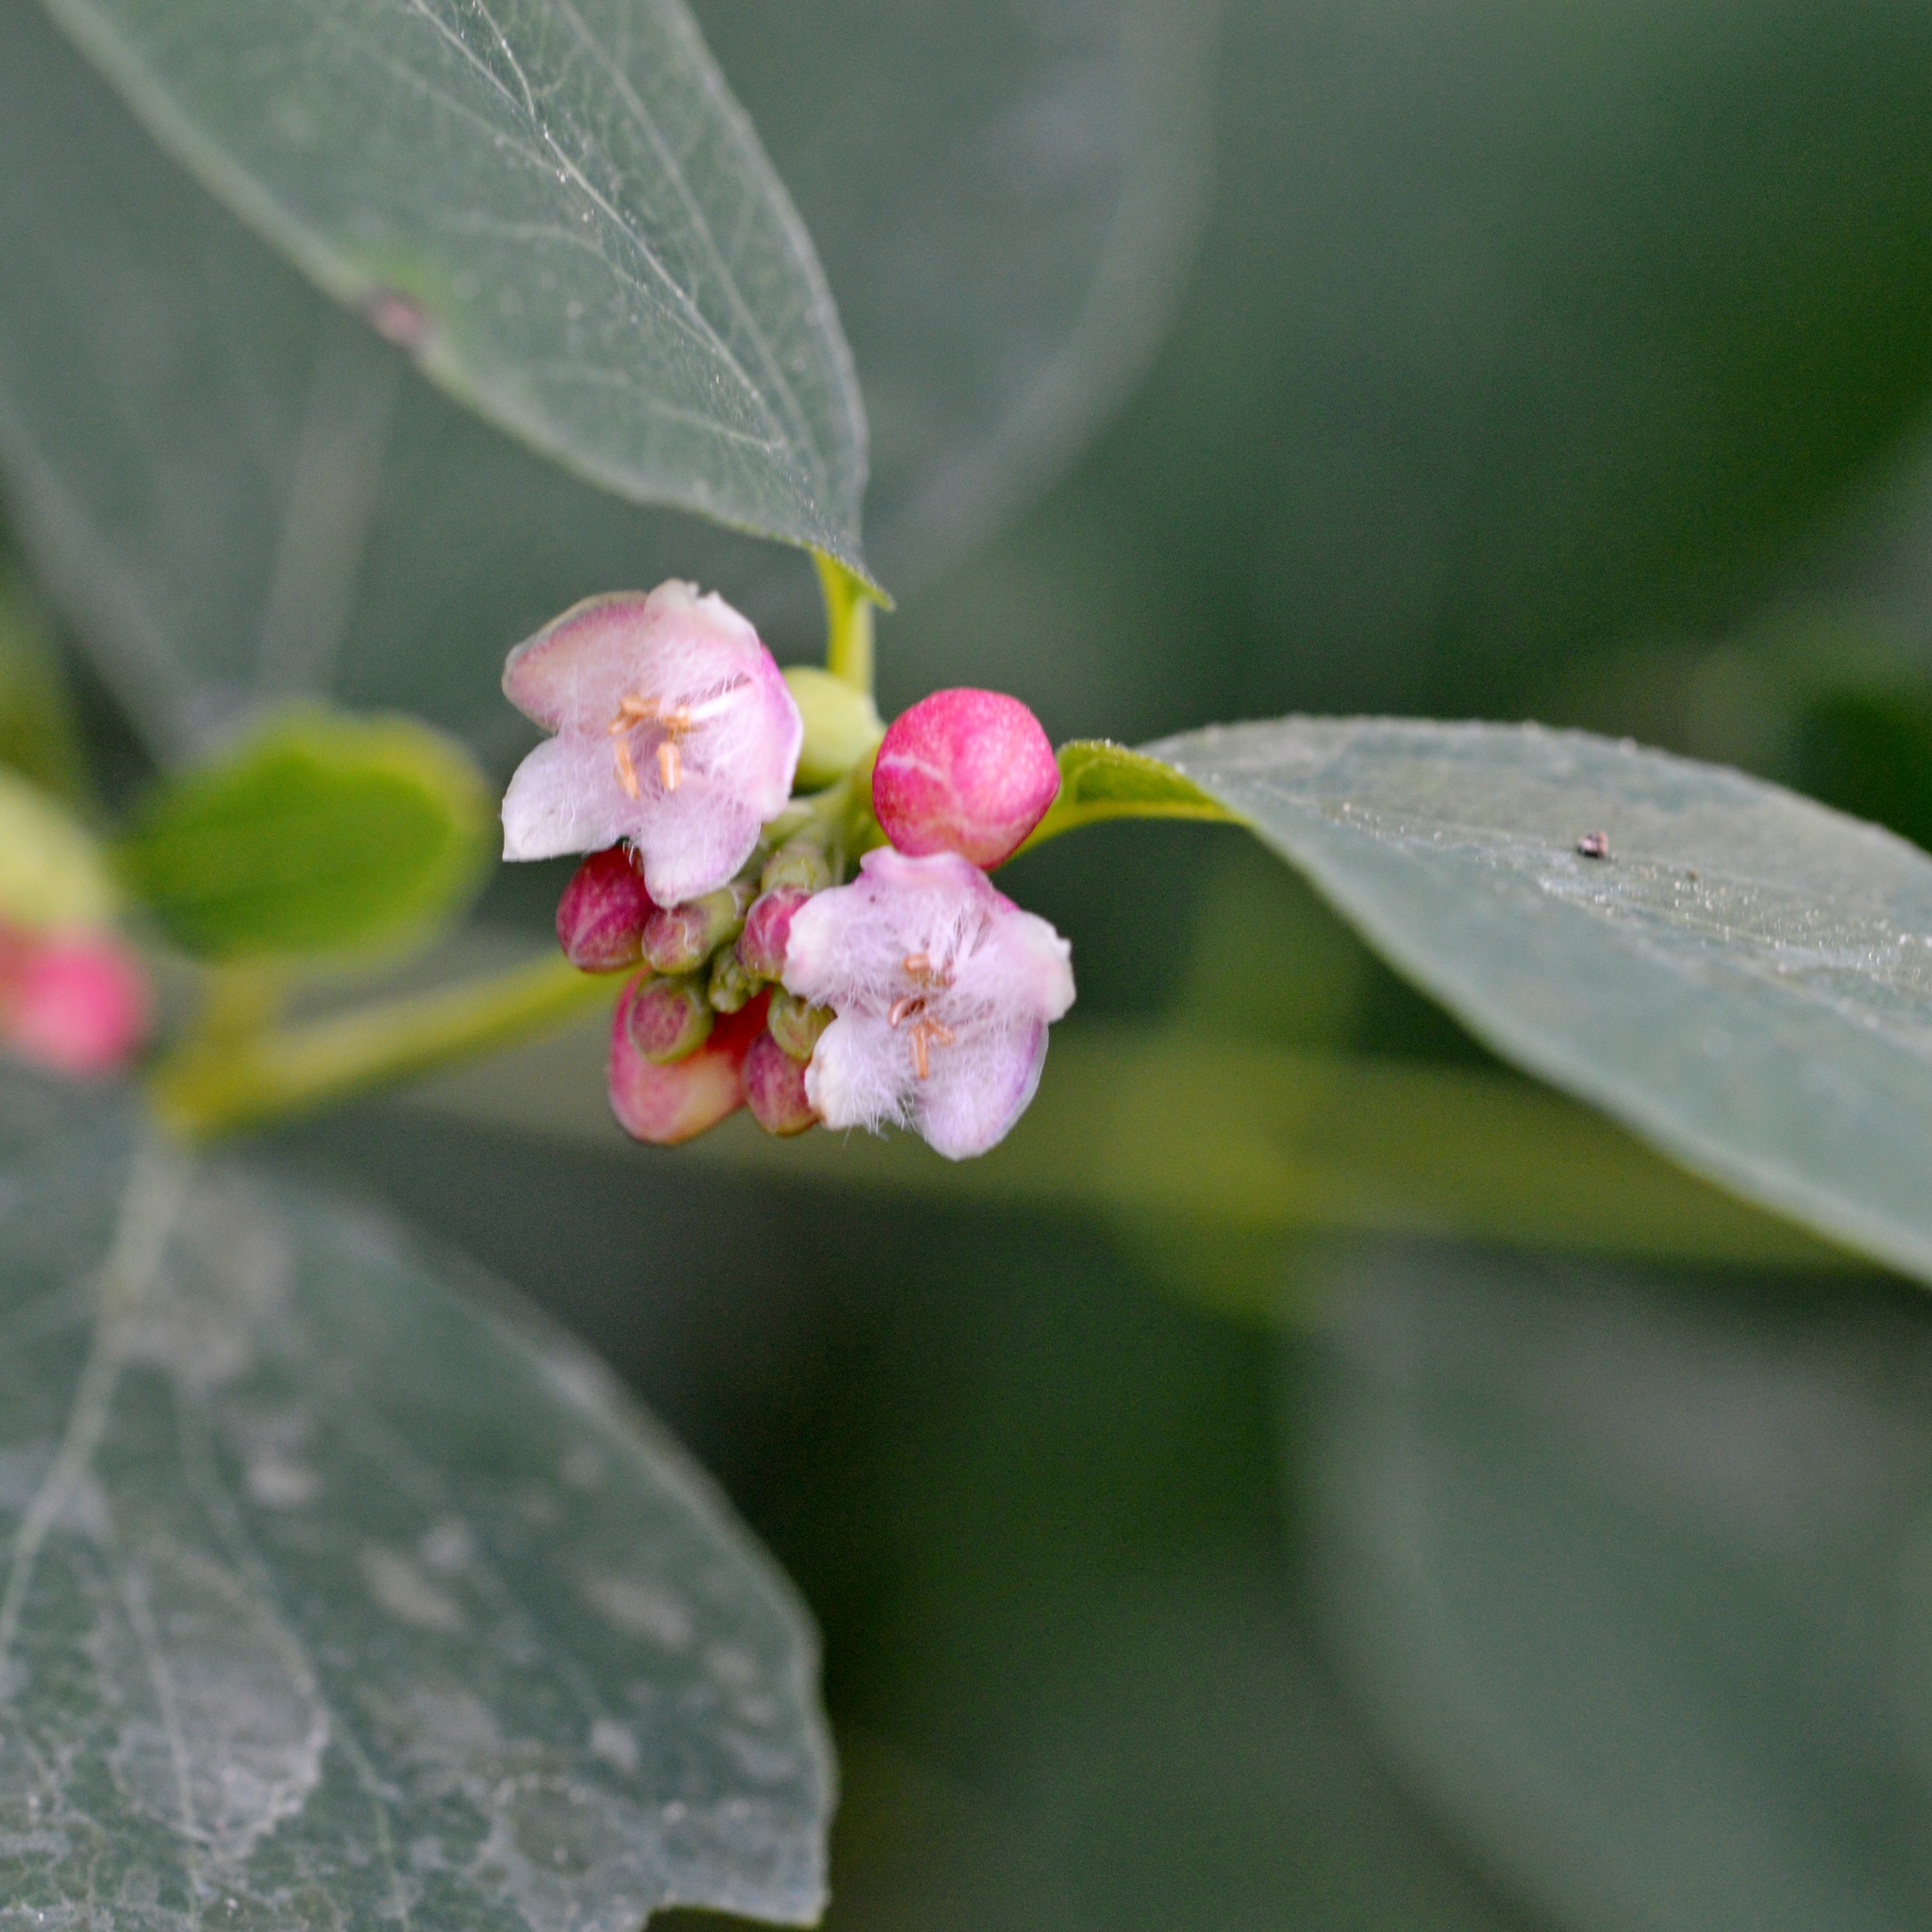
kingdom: Plantae
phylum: Tracheophyta
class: Magnoliopsida
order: Dipsacales
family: Caprifoliaceae
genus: Symphoricarpos
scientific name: Symphoricarpos albus
